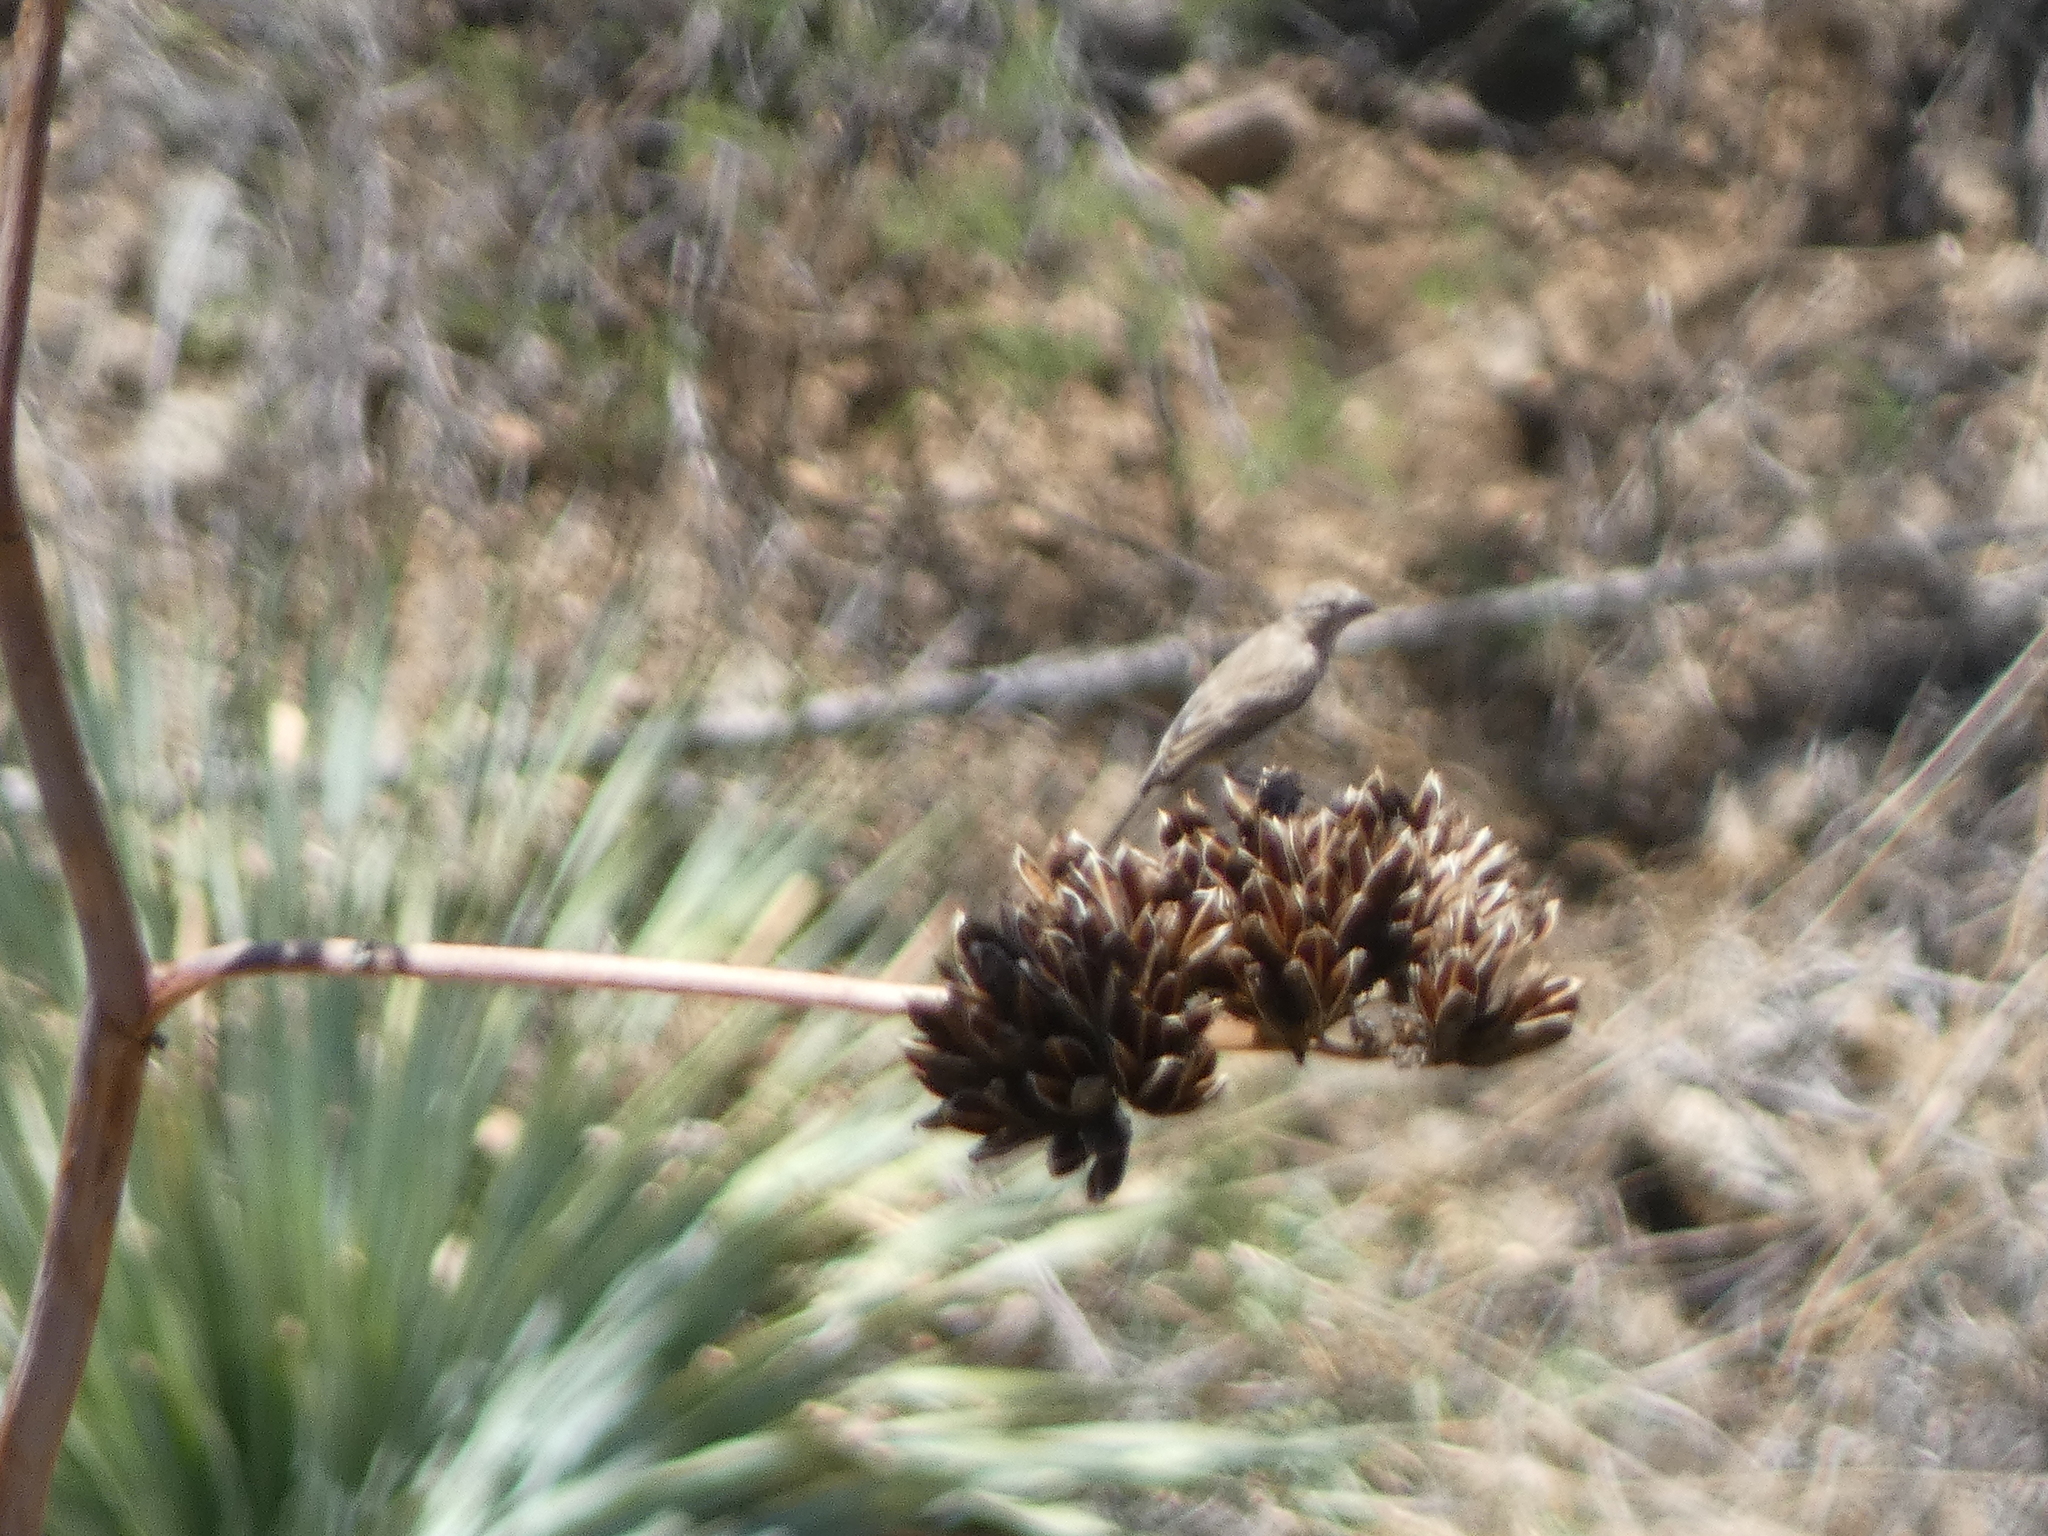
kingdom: Animalia
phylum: Chordata
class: Aves
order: Passeriformes
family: Fringillidae
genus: Haemorhous
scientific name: Haemorhous mexicanus
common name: House finch
